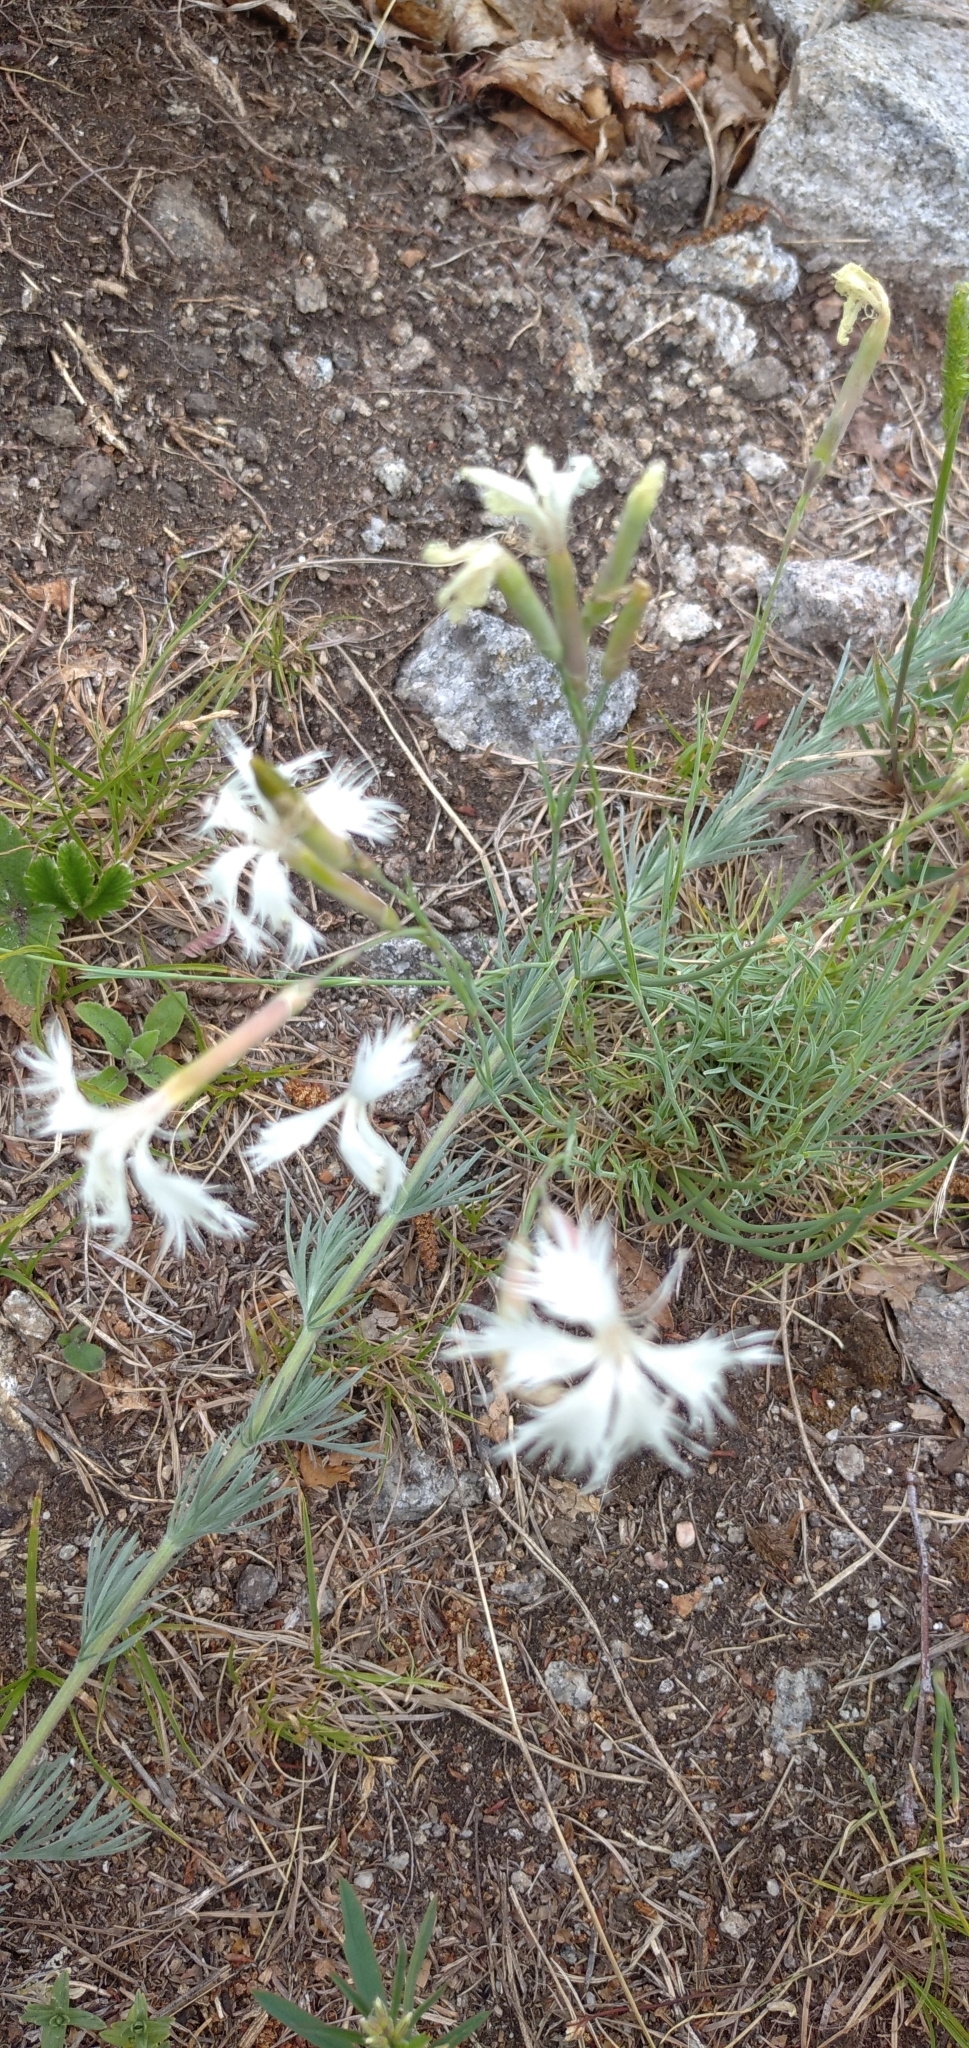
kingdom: Plantae
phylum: Tracheophyta
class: Magnoliopsida
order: Caryophyllales
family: Caryophyllaceae
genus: Dianthus
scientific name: Dianthus acicularis
